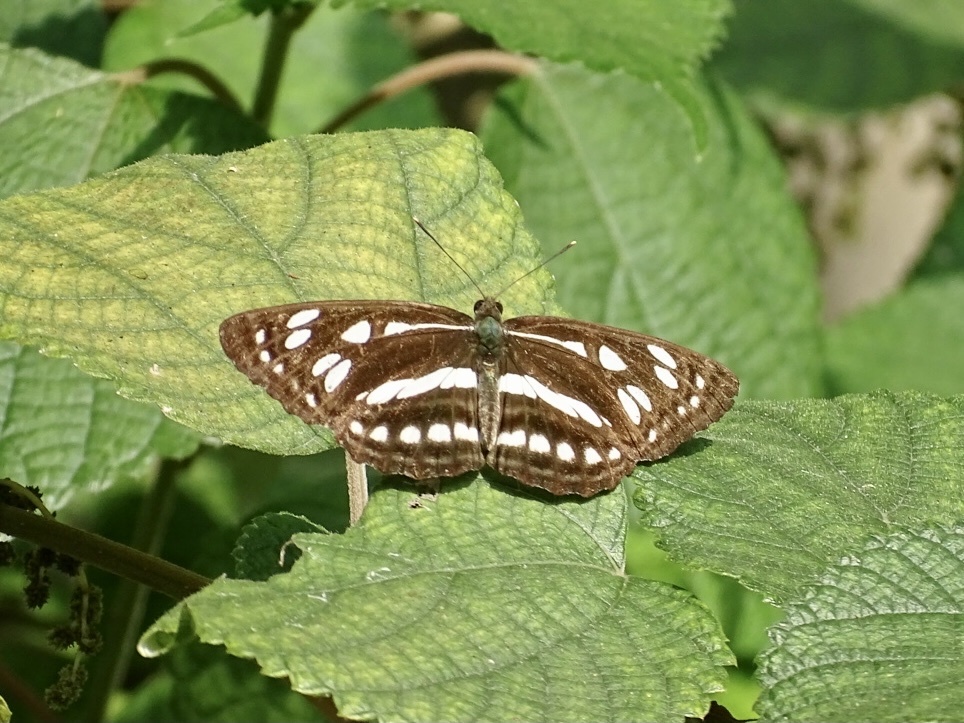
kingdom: Animalia
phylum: Arthropoda
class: Insecta
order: Lepidoptera
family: Nymphalidae
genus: Phaedyma
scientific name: Phaedyma columella
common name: Short banded sailer
